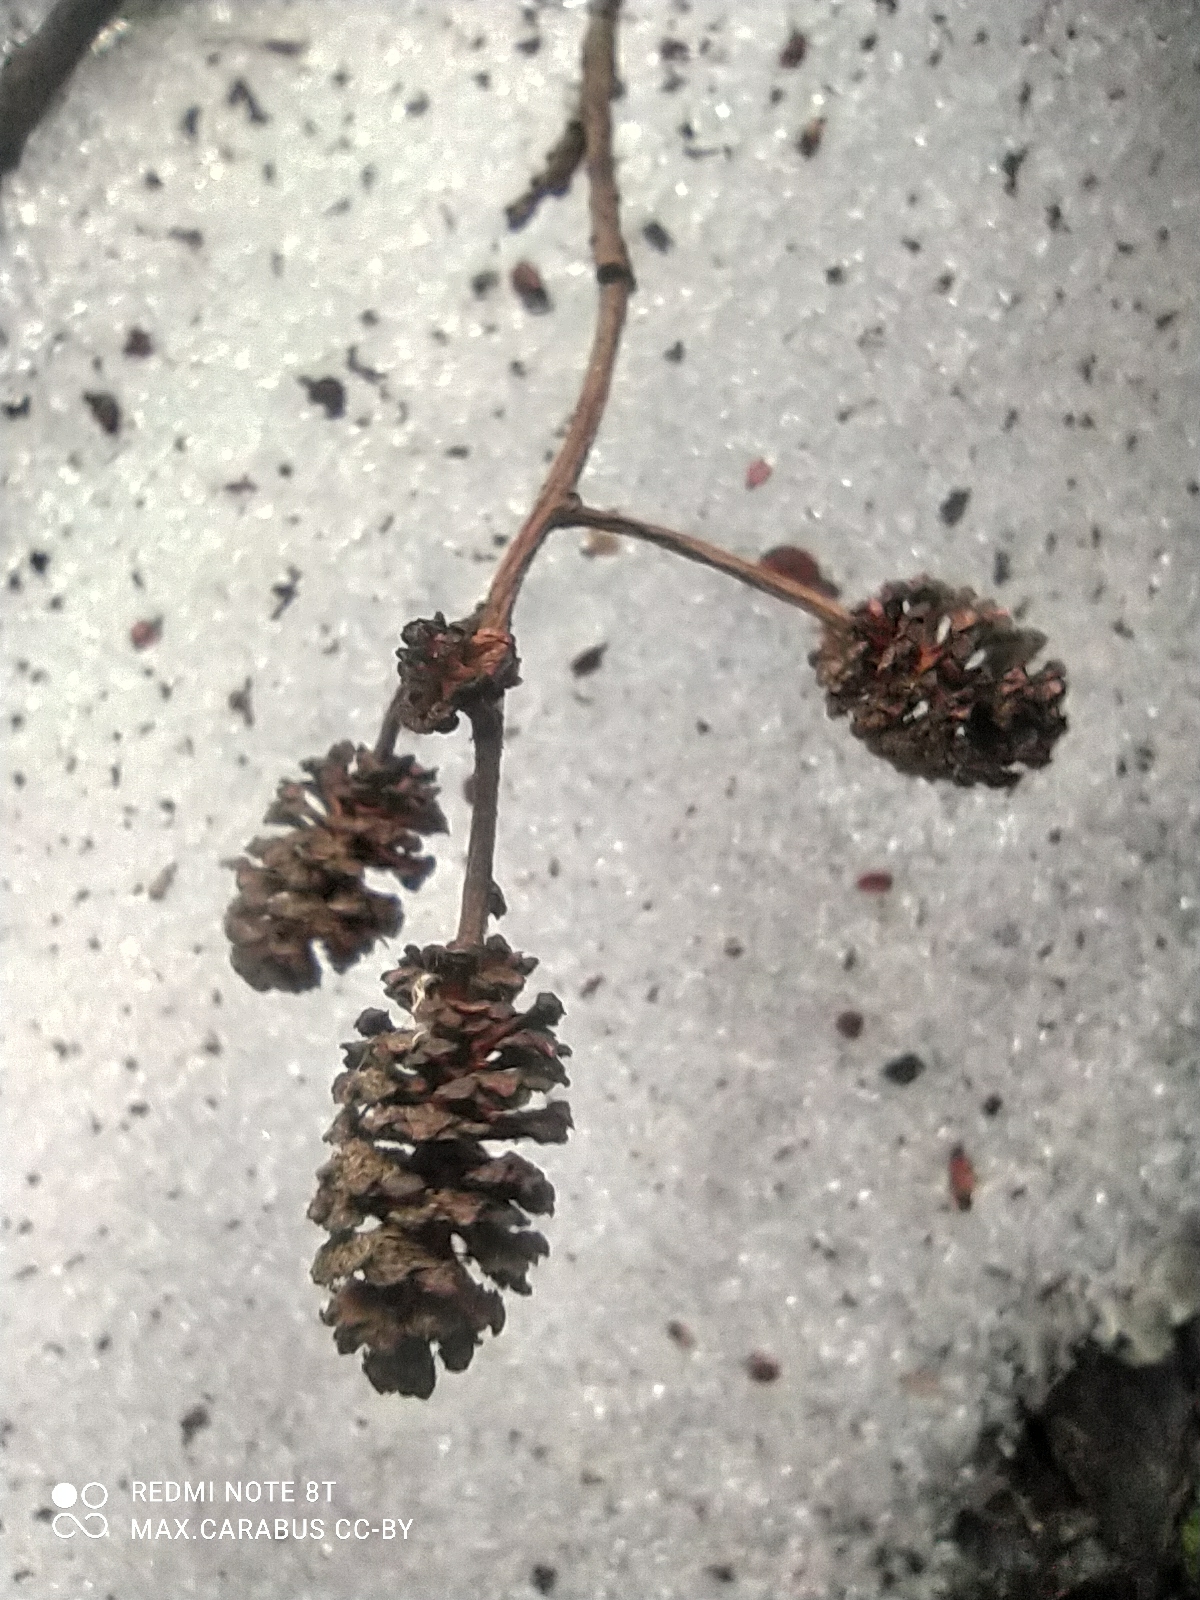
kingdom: Plantae
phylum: Tracheophyta
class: Magnoliopsida
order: Fagales
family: Betulaceae
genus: Alnus
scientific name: Alnus glutinosa
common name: Black alder
